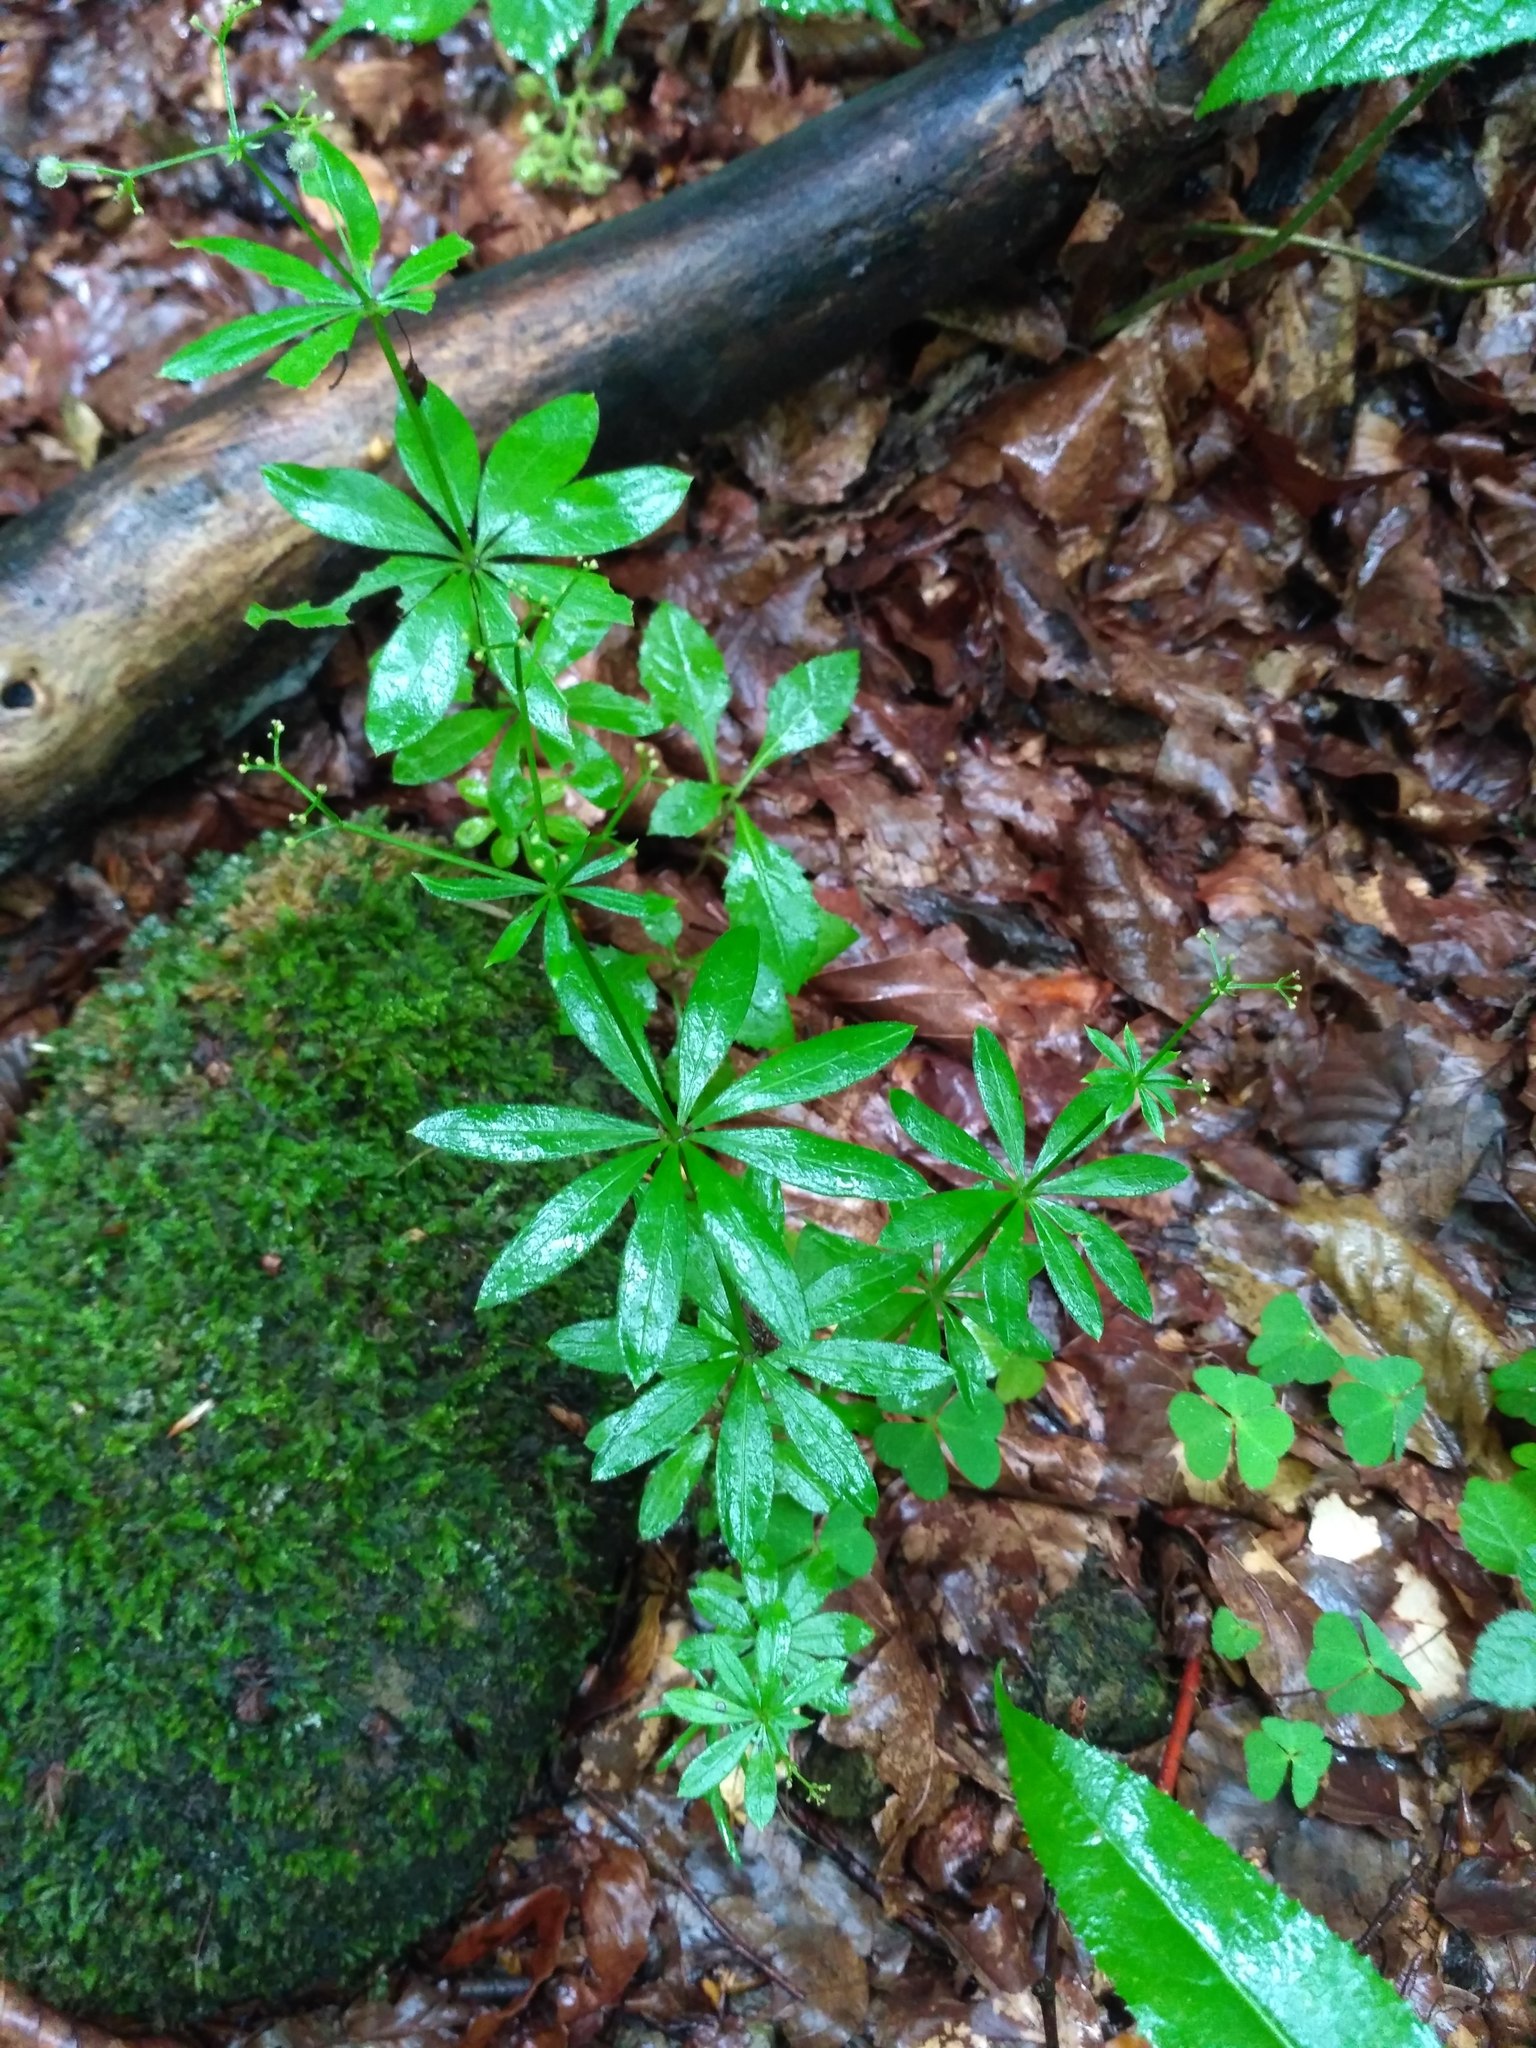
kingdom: Plantae
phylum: Tracheophyta
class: Magnoliopsida
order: Gentianales
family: Rubiaceae
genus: Galium
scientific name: Galium odoratum
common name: Sweet woodruff
